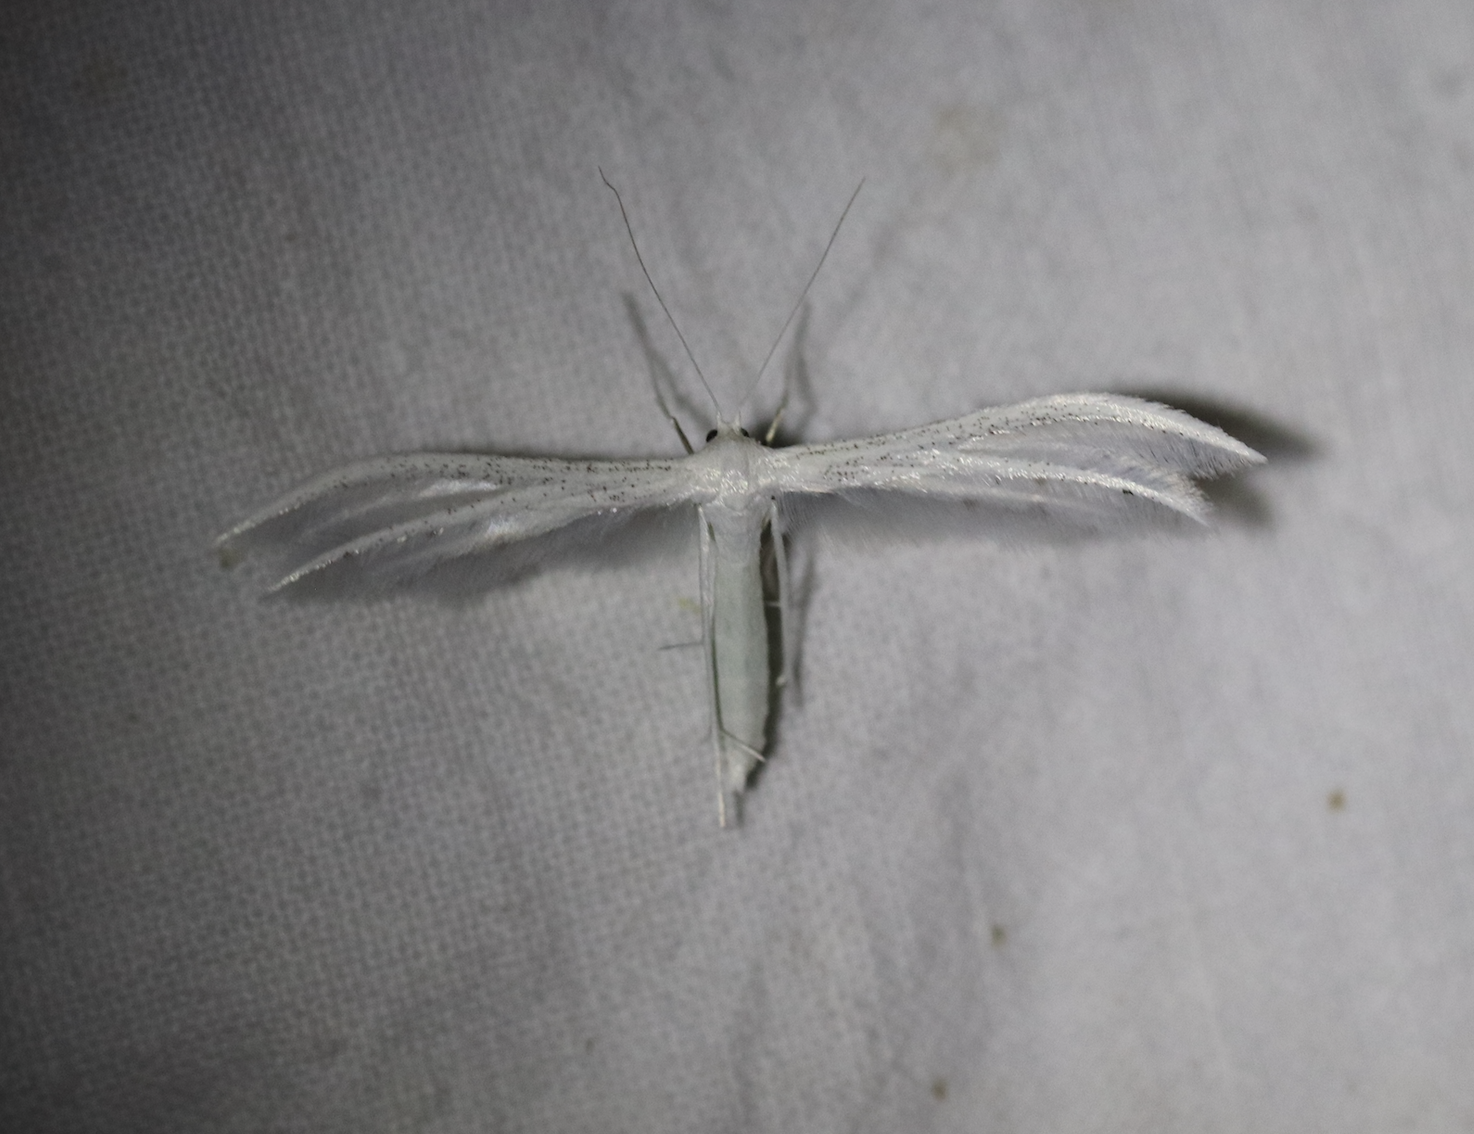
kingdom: Animalia
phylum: Arthropoda
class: Insecta
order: Lepidoptera
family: Pterophoridae
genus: Pterophorus
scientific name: Pterophorus pentadactyla
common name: White plume moth
